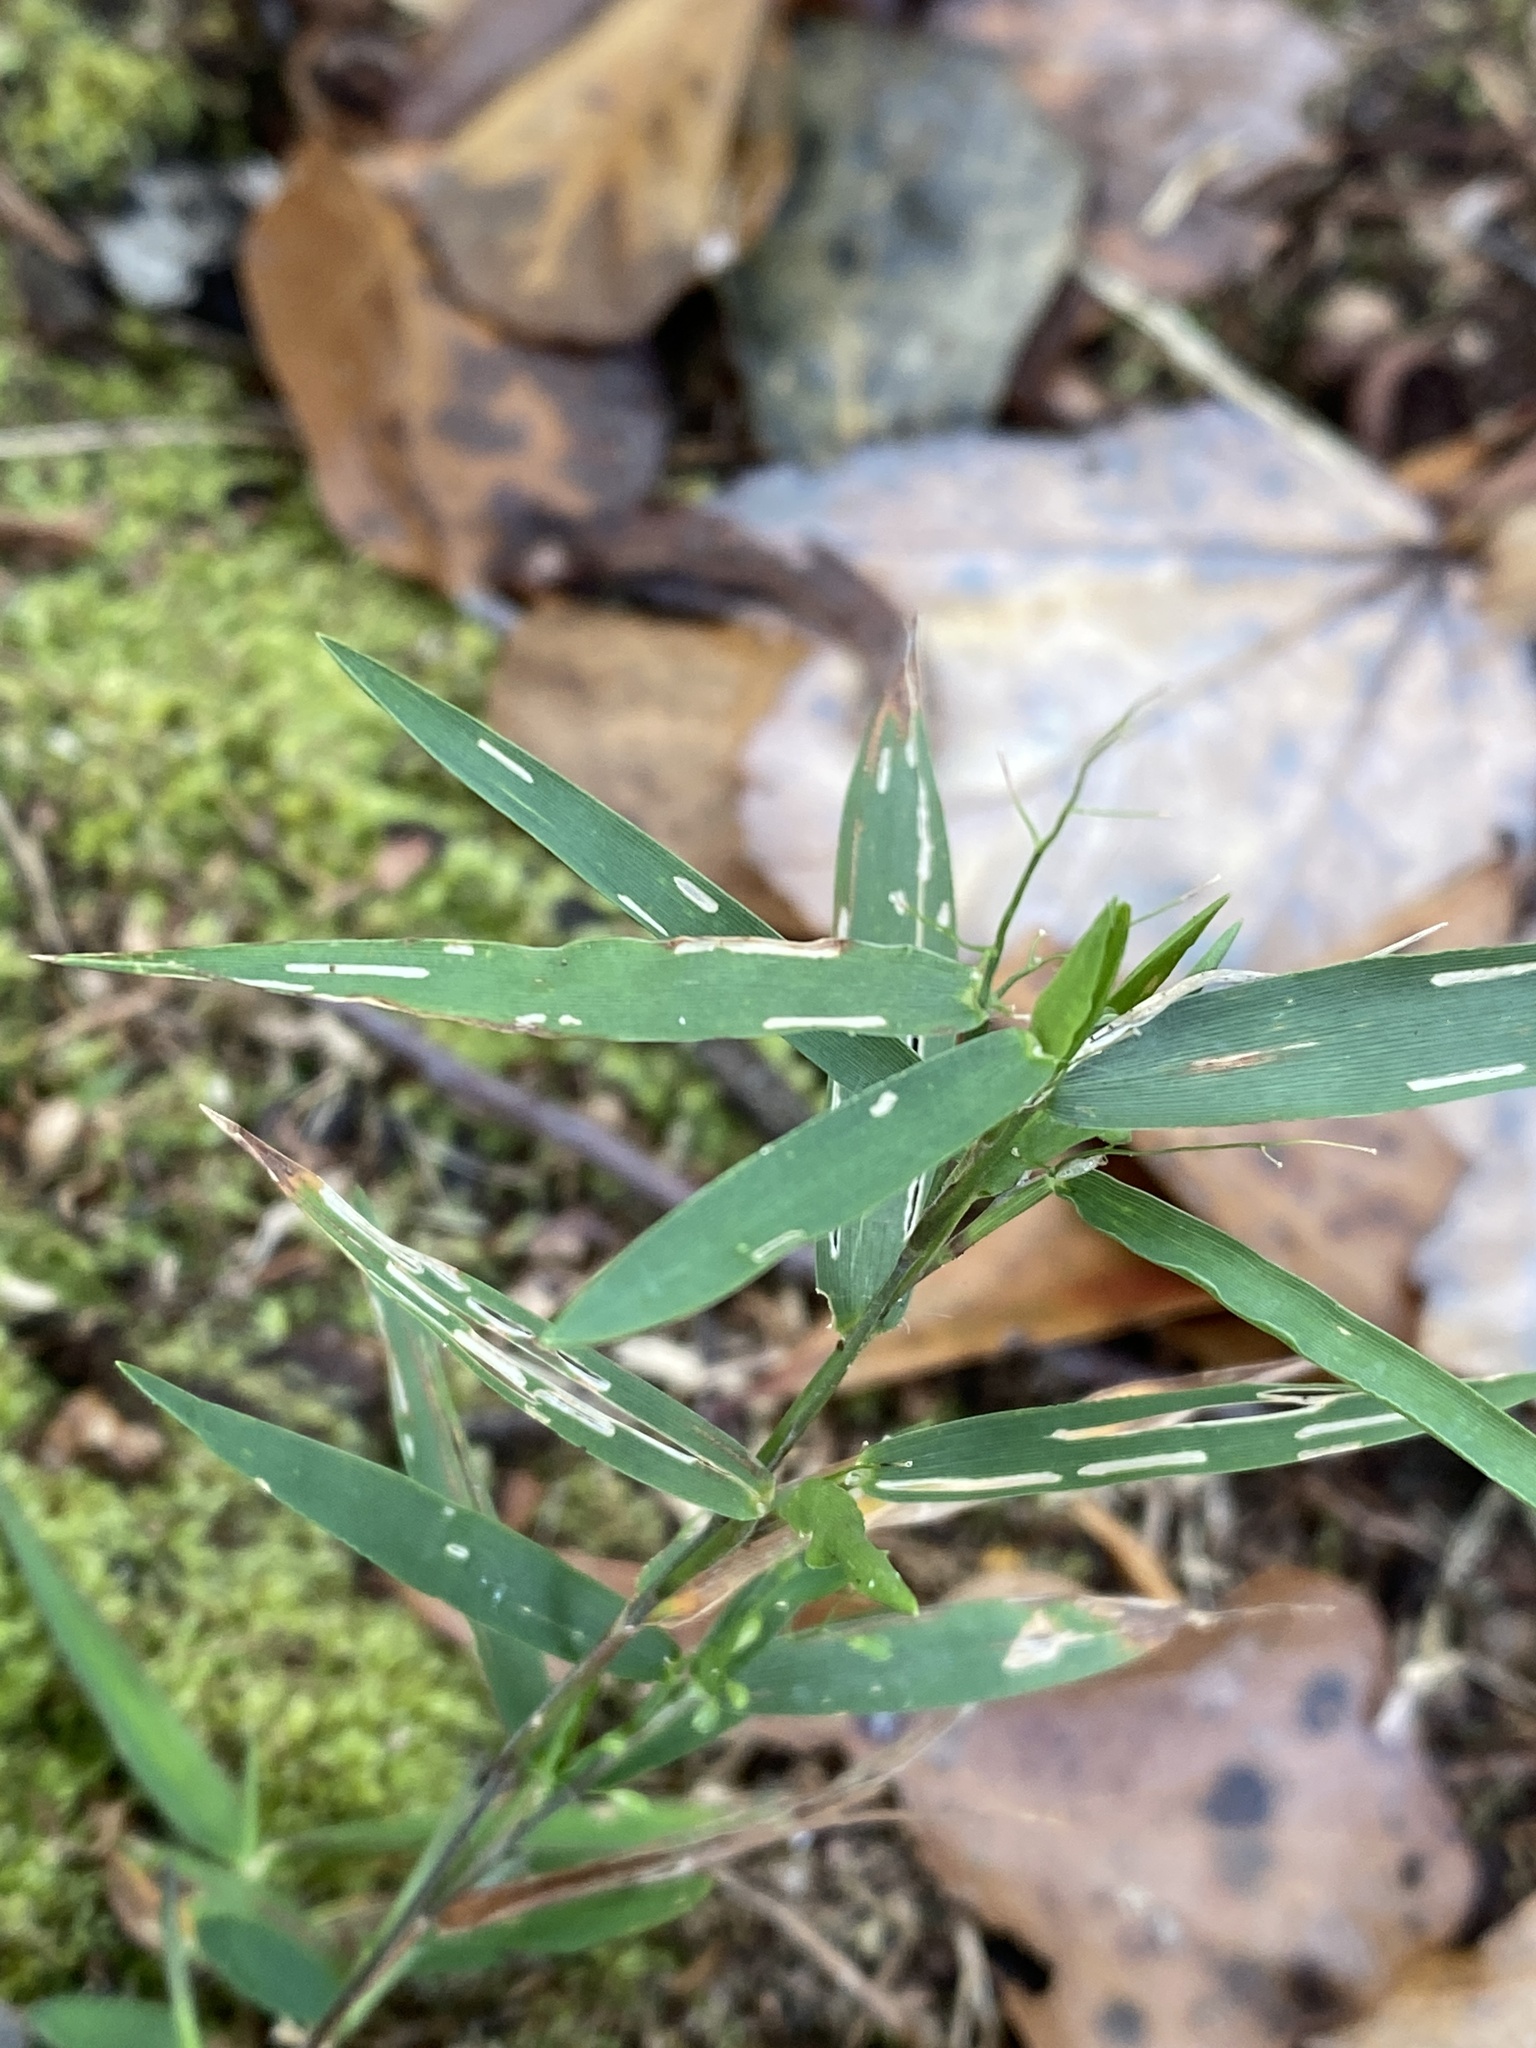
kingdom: Plantae
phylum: Tracheophyta
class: Liliopsida
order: Poales
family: Poaceae
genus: Dichanthelium
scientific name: Dichanthelium patulum
